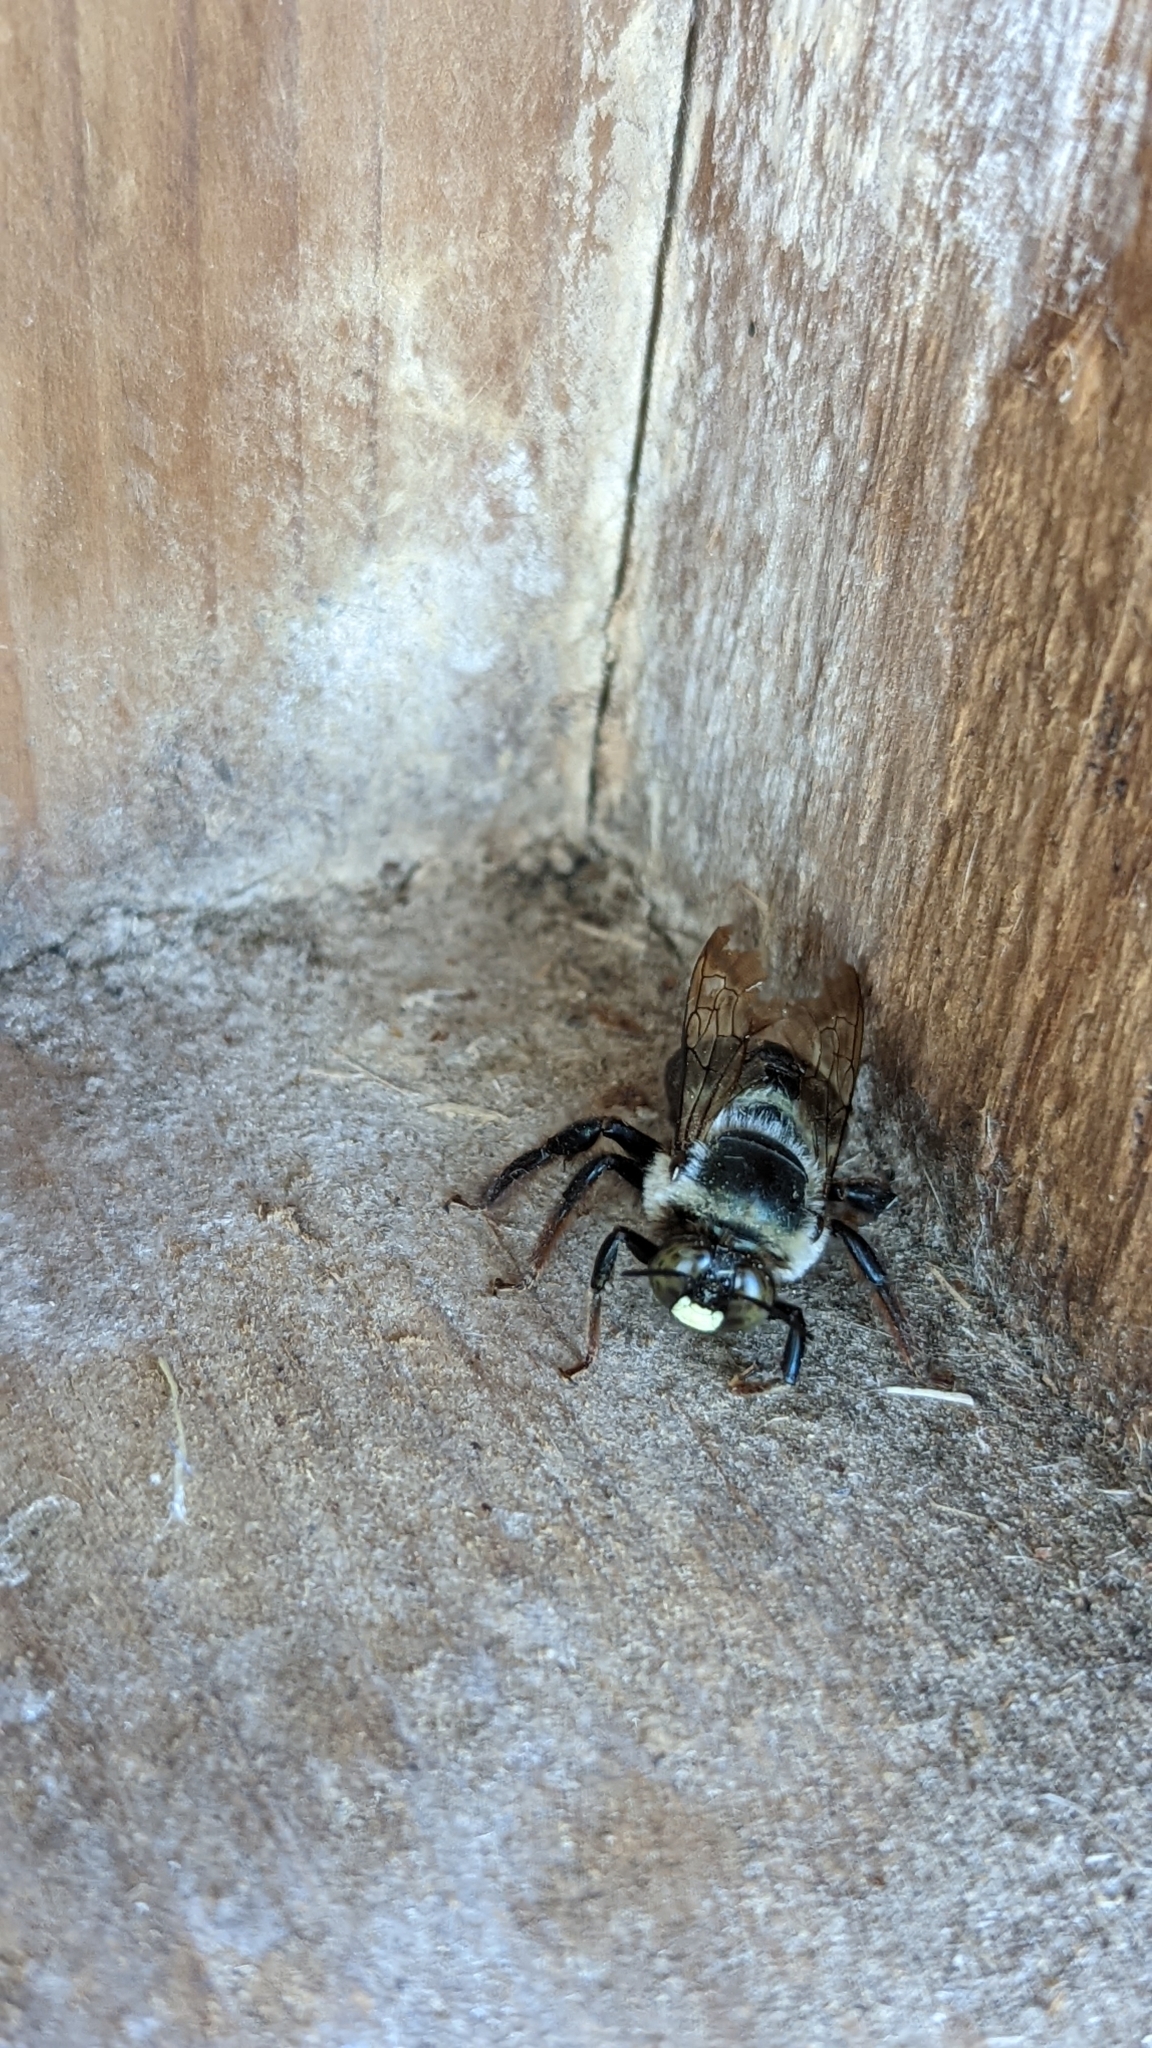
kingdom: Animalia
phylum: Arthropoda
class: Insecta
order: Hymenoptera
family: Apidae
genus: Xylocopa
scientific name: Xylocopa virginica
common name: Carpenter bee
